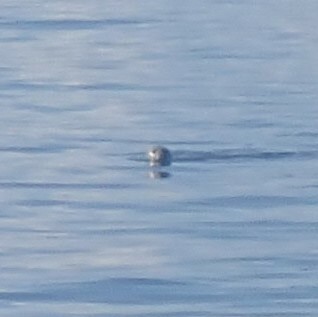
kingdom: Animalia
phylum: Chordata
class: Mammalia
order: Carnivora
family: Phocidae
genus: Phoca
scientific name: Phoca vitulina
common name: Harbor seal
